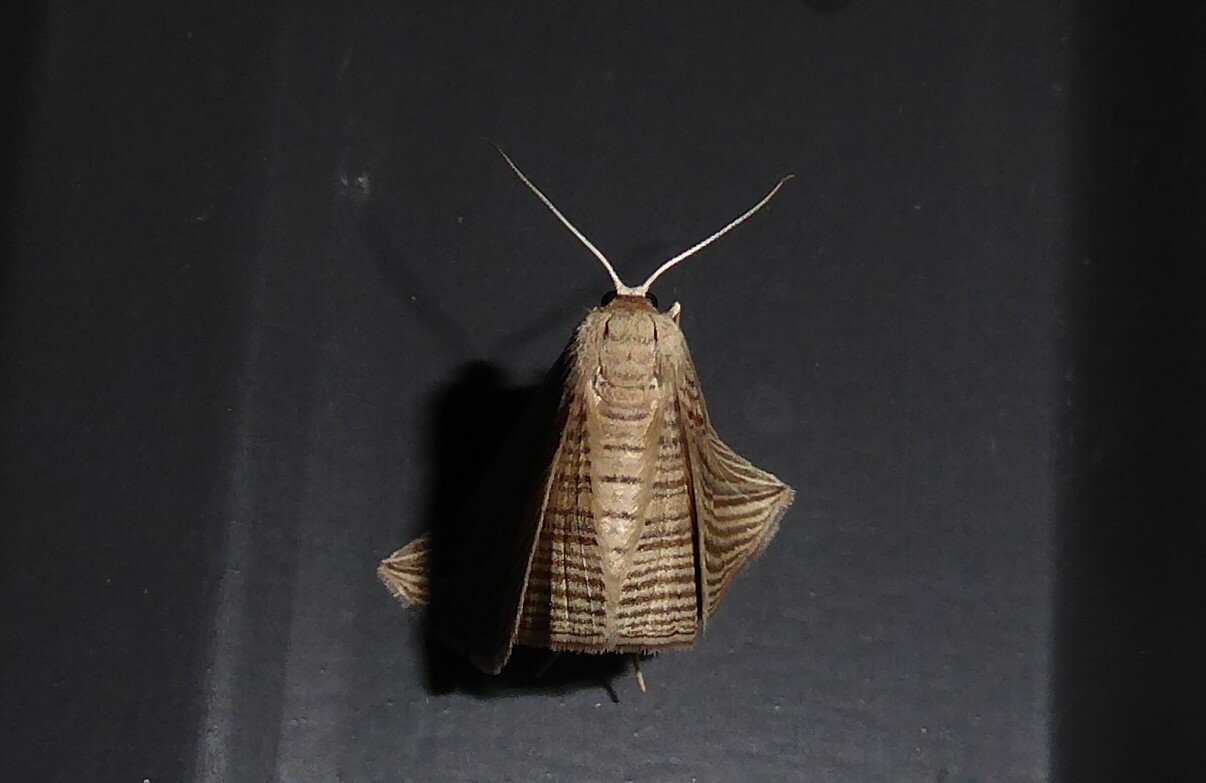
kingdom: Animalia
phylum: Arthropoda
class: Insecta
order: Lepidoptera
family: Geometridae
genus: Epiphryne
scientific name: Epiphryne verriculata
